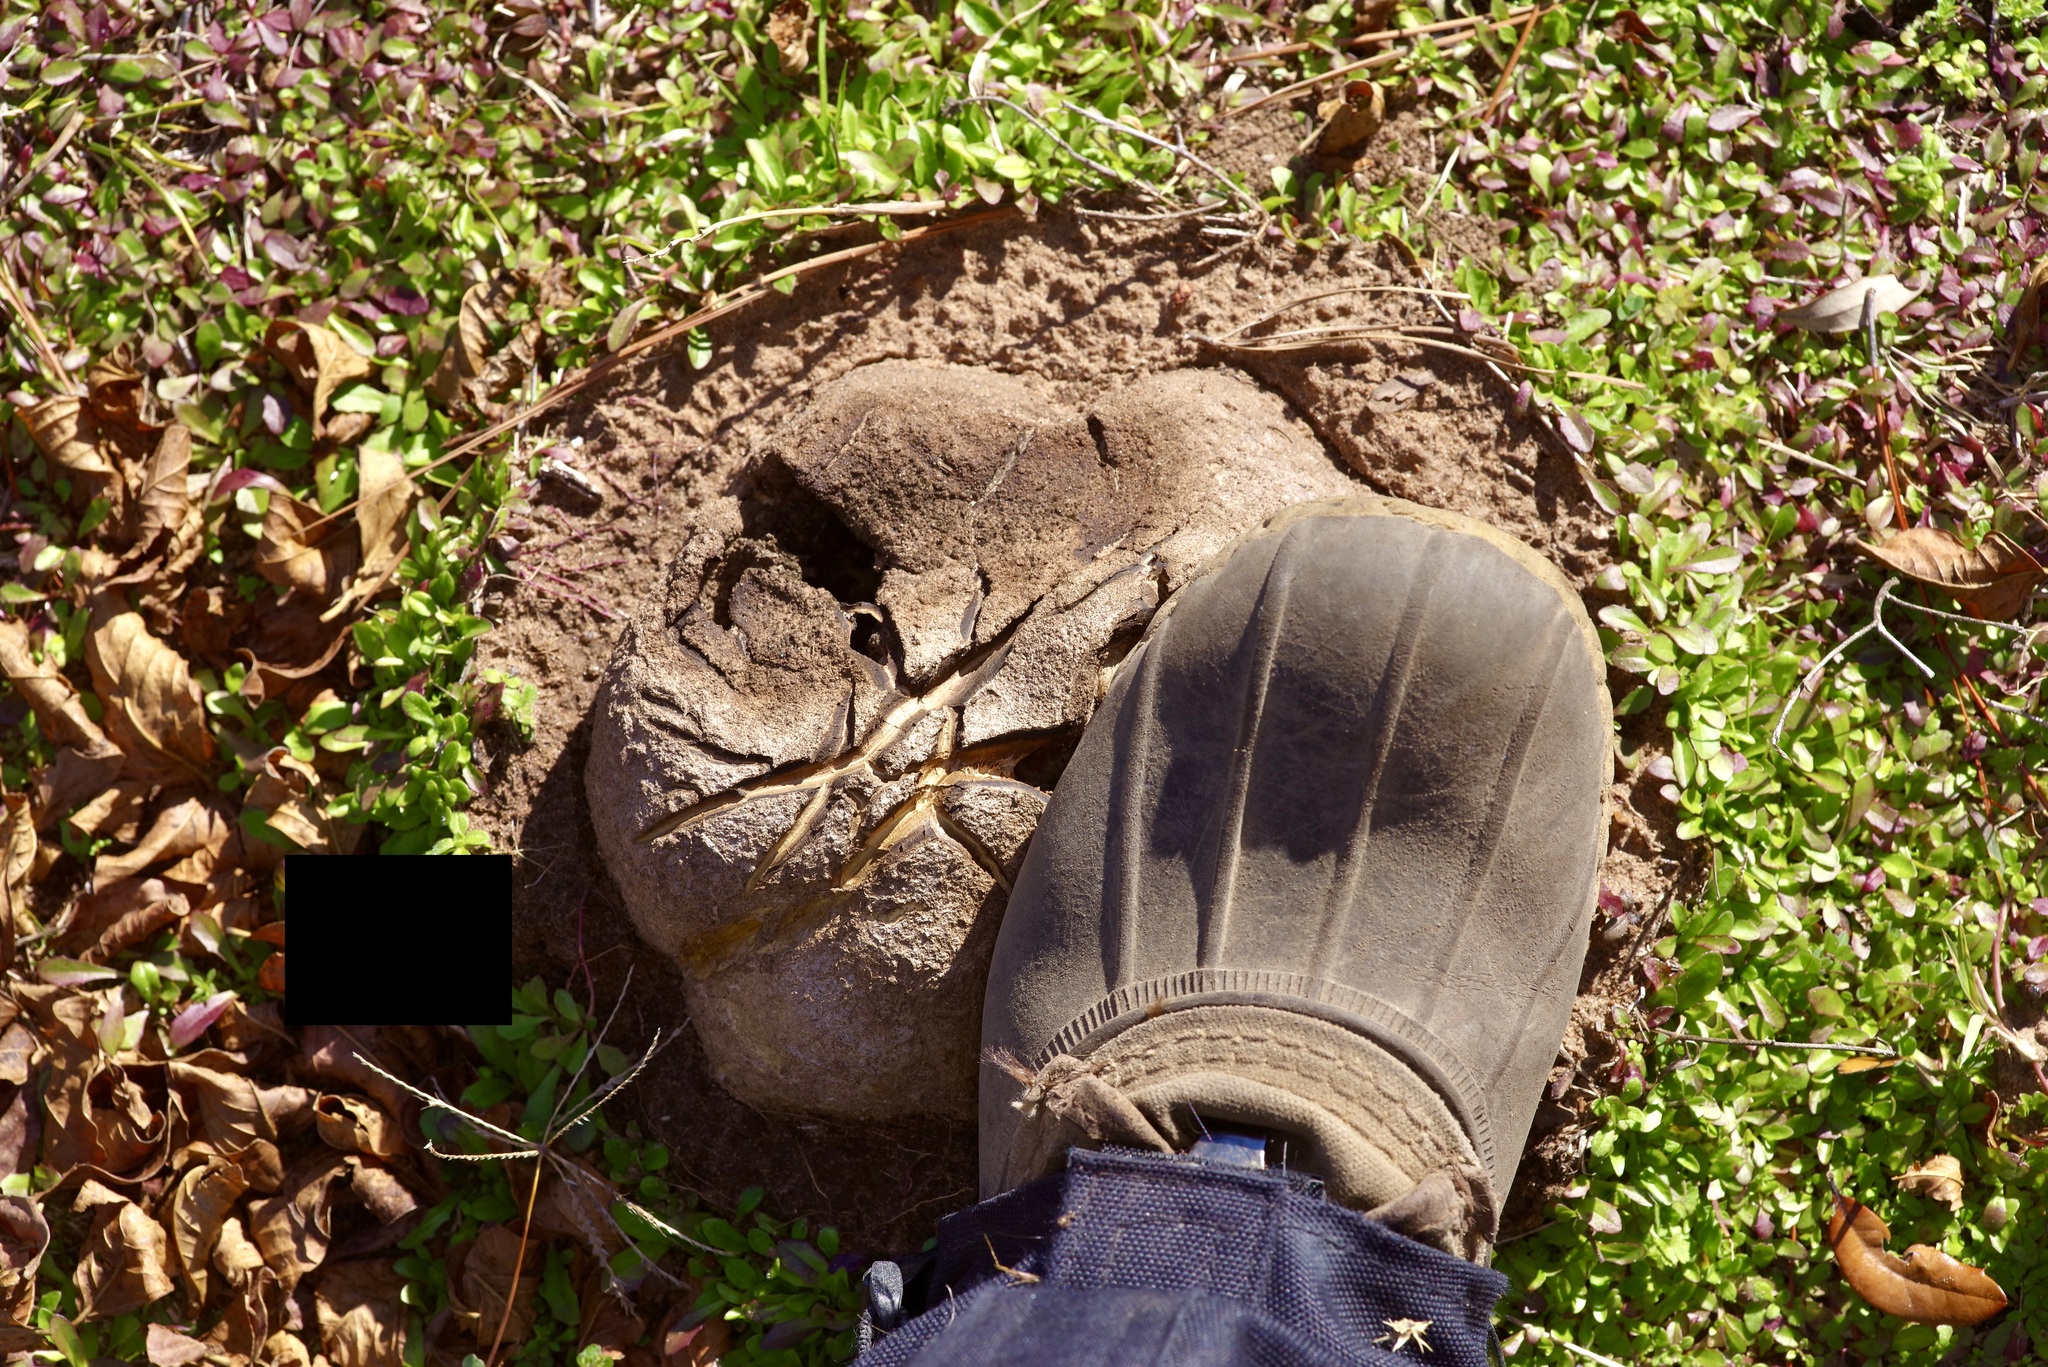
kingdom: Fungi
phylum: Basidiomycota
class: Agaricomycetes
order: Boletales
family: Sclerodermataceae
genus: Scleroderma
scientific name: Scleroderma polyrhizum
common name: Many-rooted earthball
